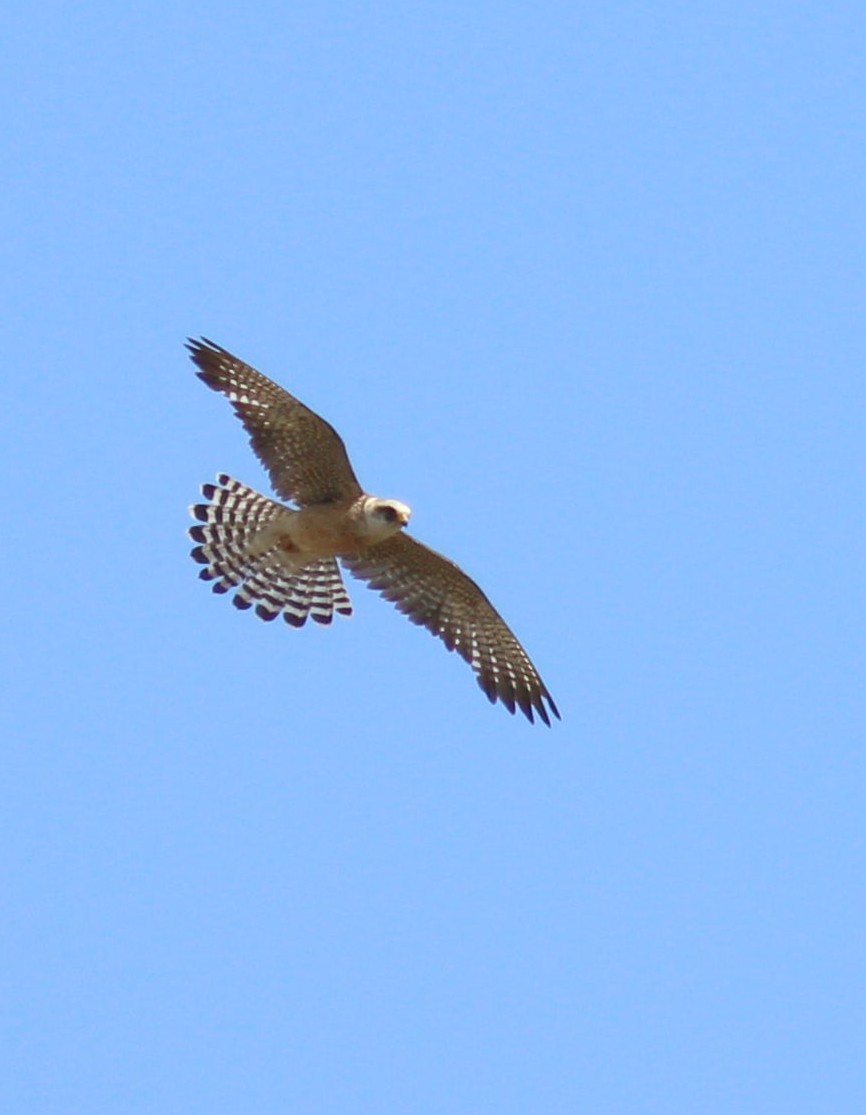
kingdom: Animalia
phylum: Chordata
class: Aves
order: Falconiformes
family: Falconidae
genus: Falco
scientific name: Falco vespertinus
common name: Red-footed falcon
